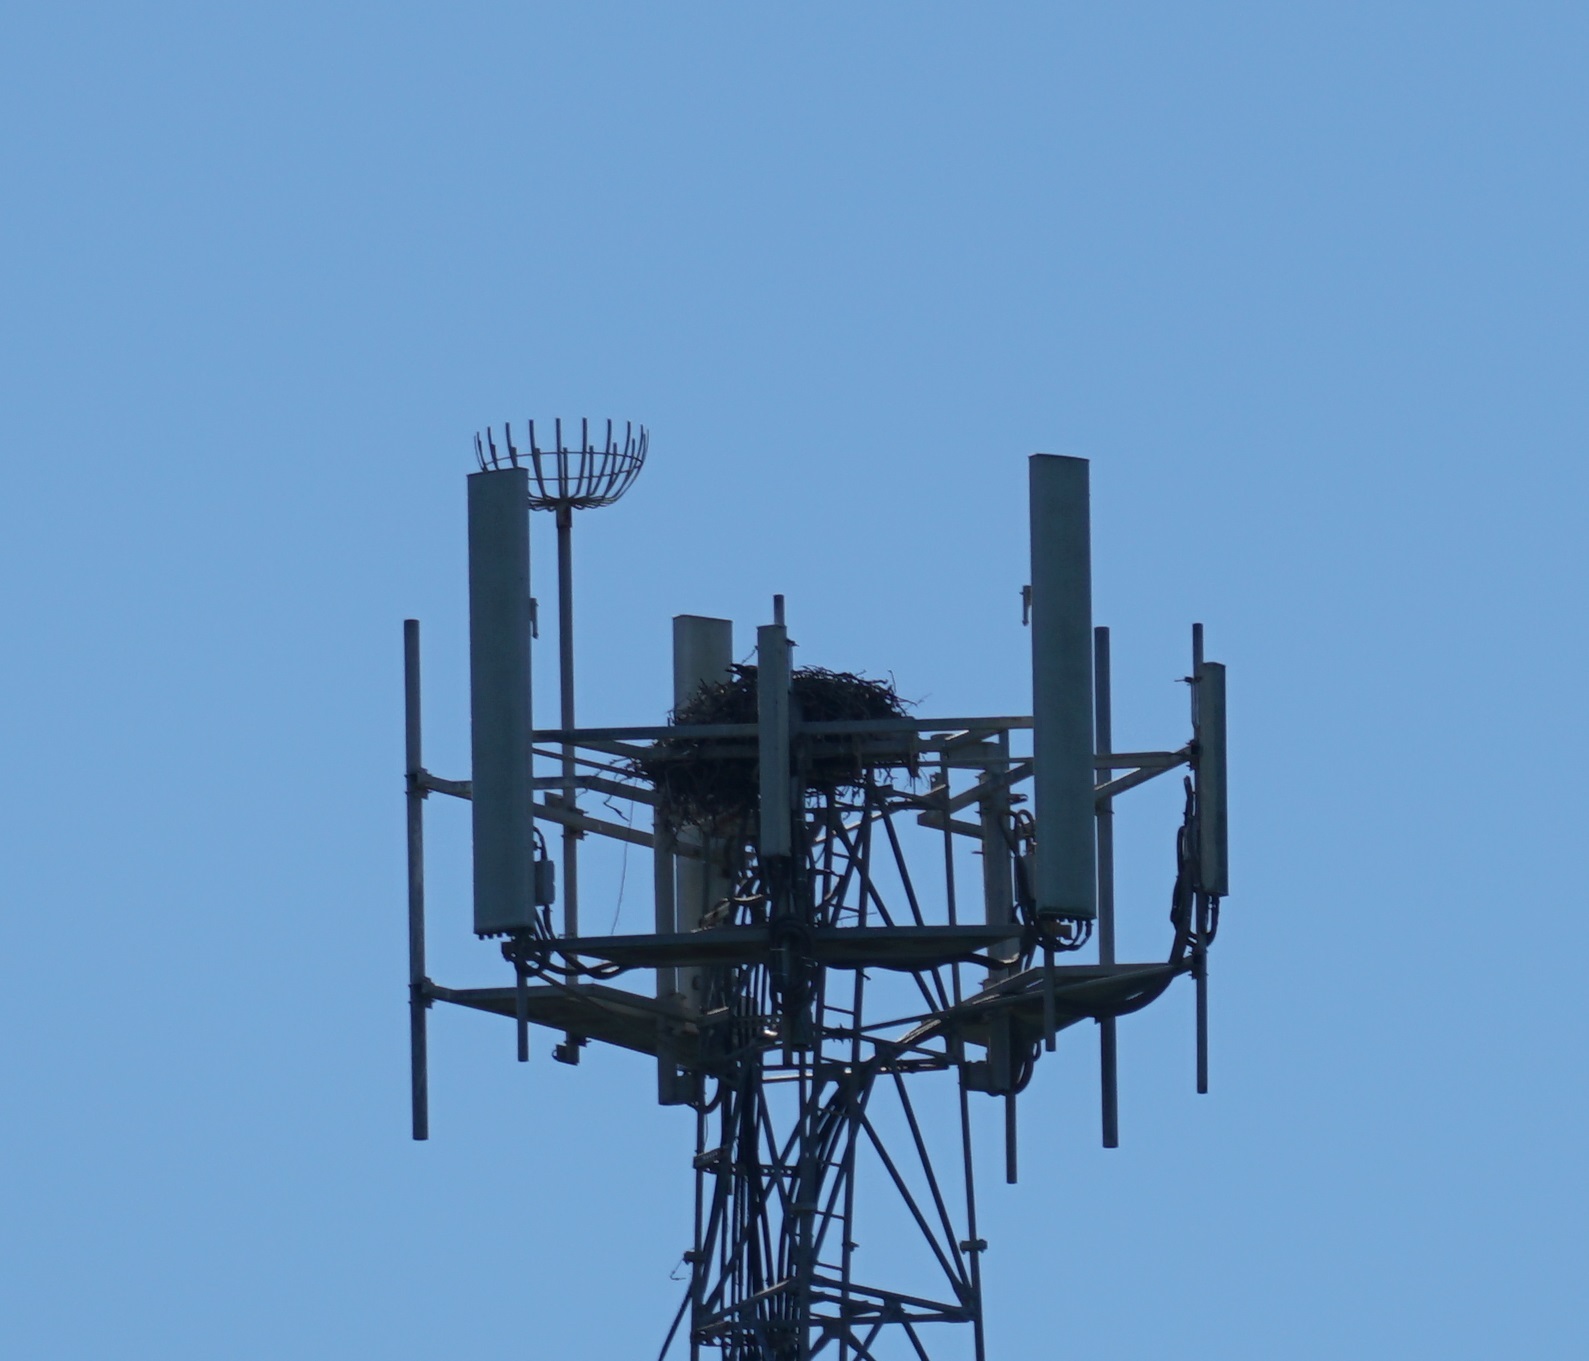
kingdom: Animalia
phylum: Chordata
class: Aves
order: Accipitriformes
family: Pandionidae
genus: Pandion
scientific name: Pandion haliaetus
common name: Osprey
